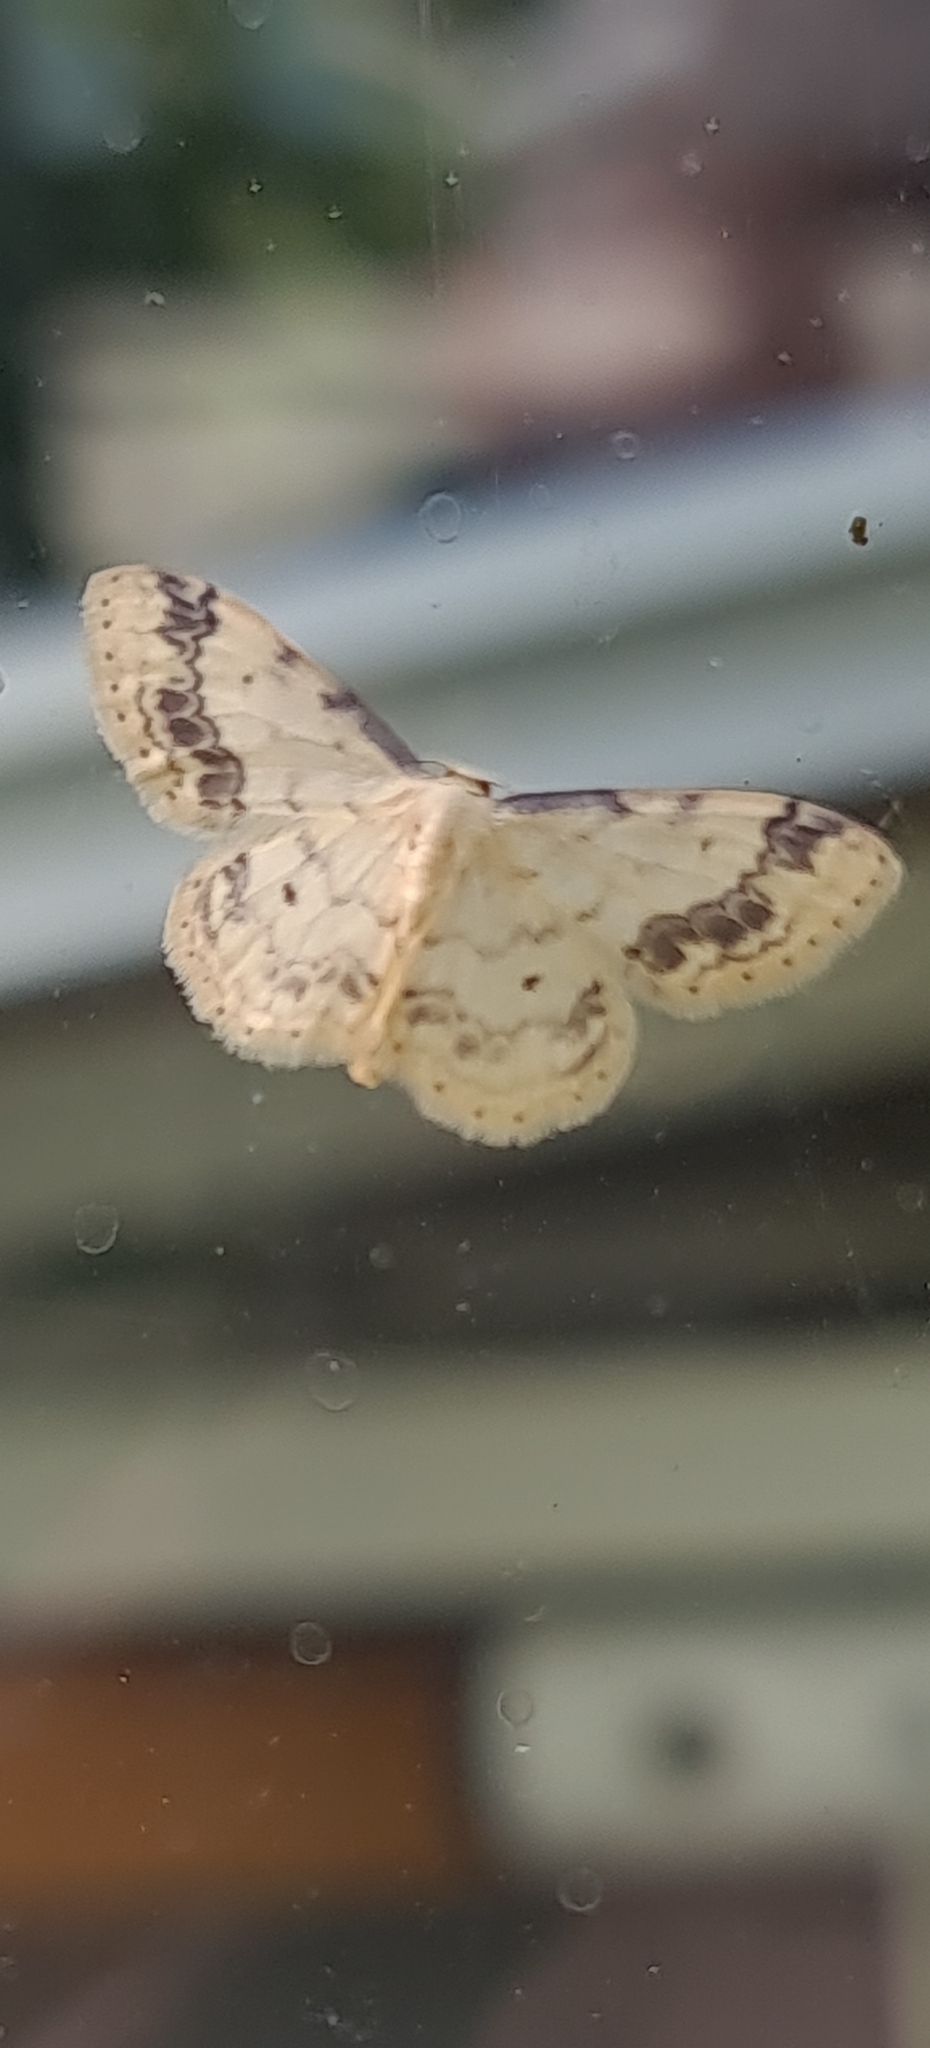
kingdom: Animalia
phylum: Arthropoda
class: Insecta
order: Lepidoptera
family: Geometridae
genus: Idaea
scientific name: Idaea trigeminata
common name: Treble brown spot
